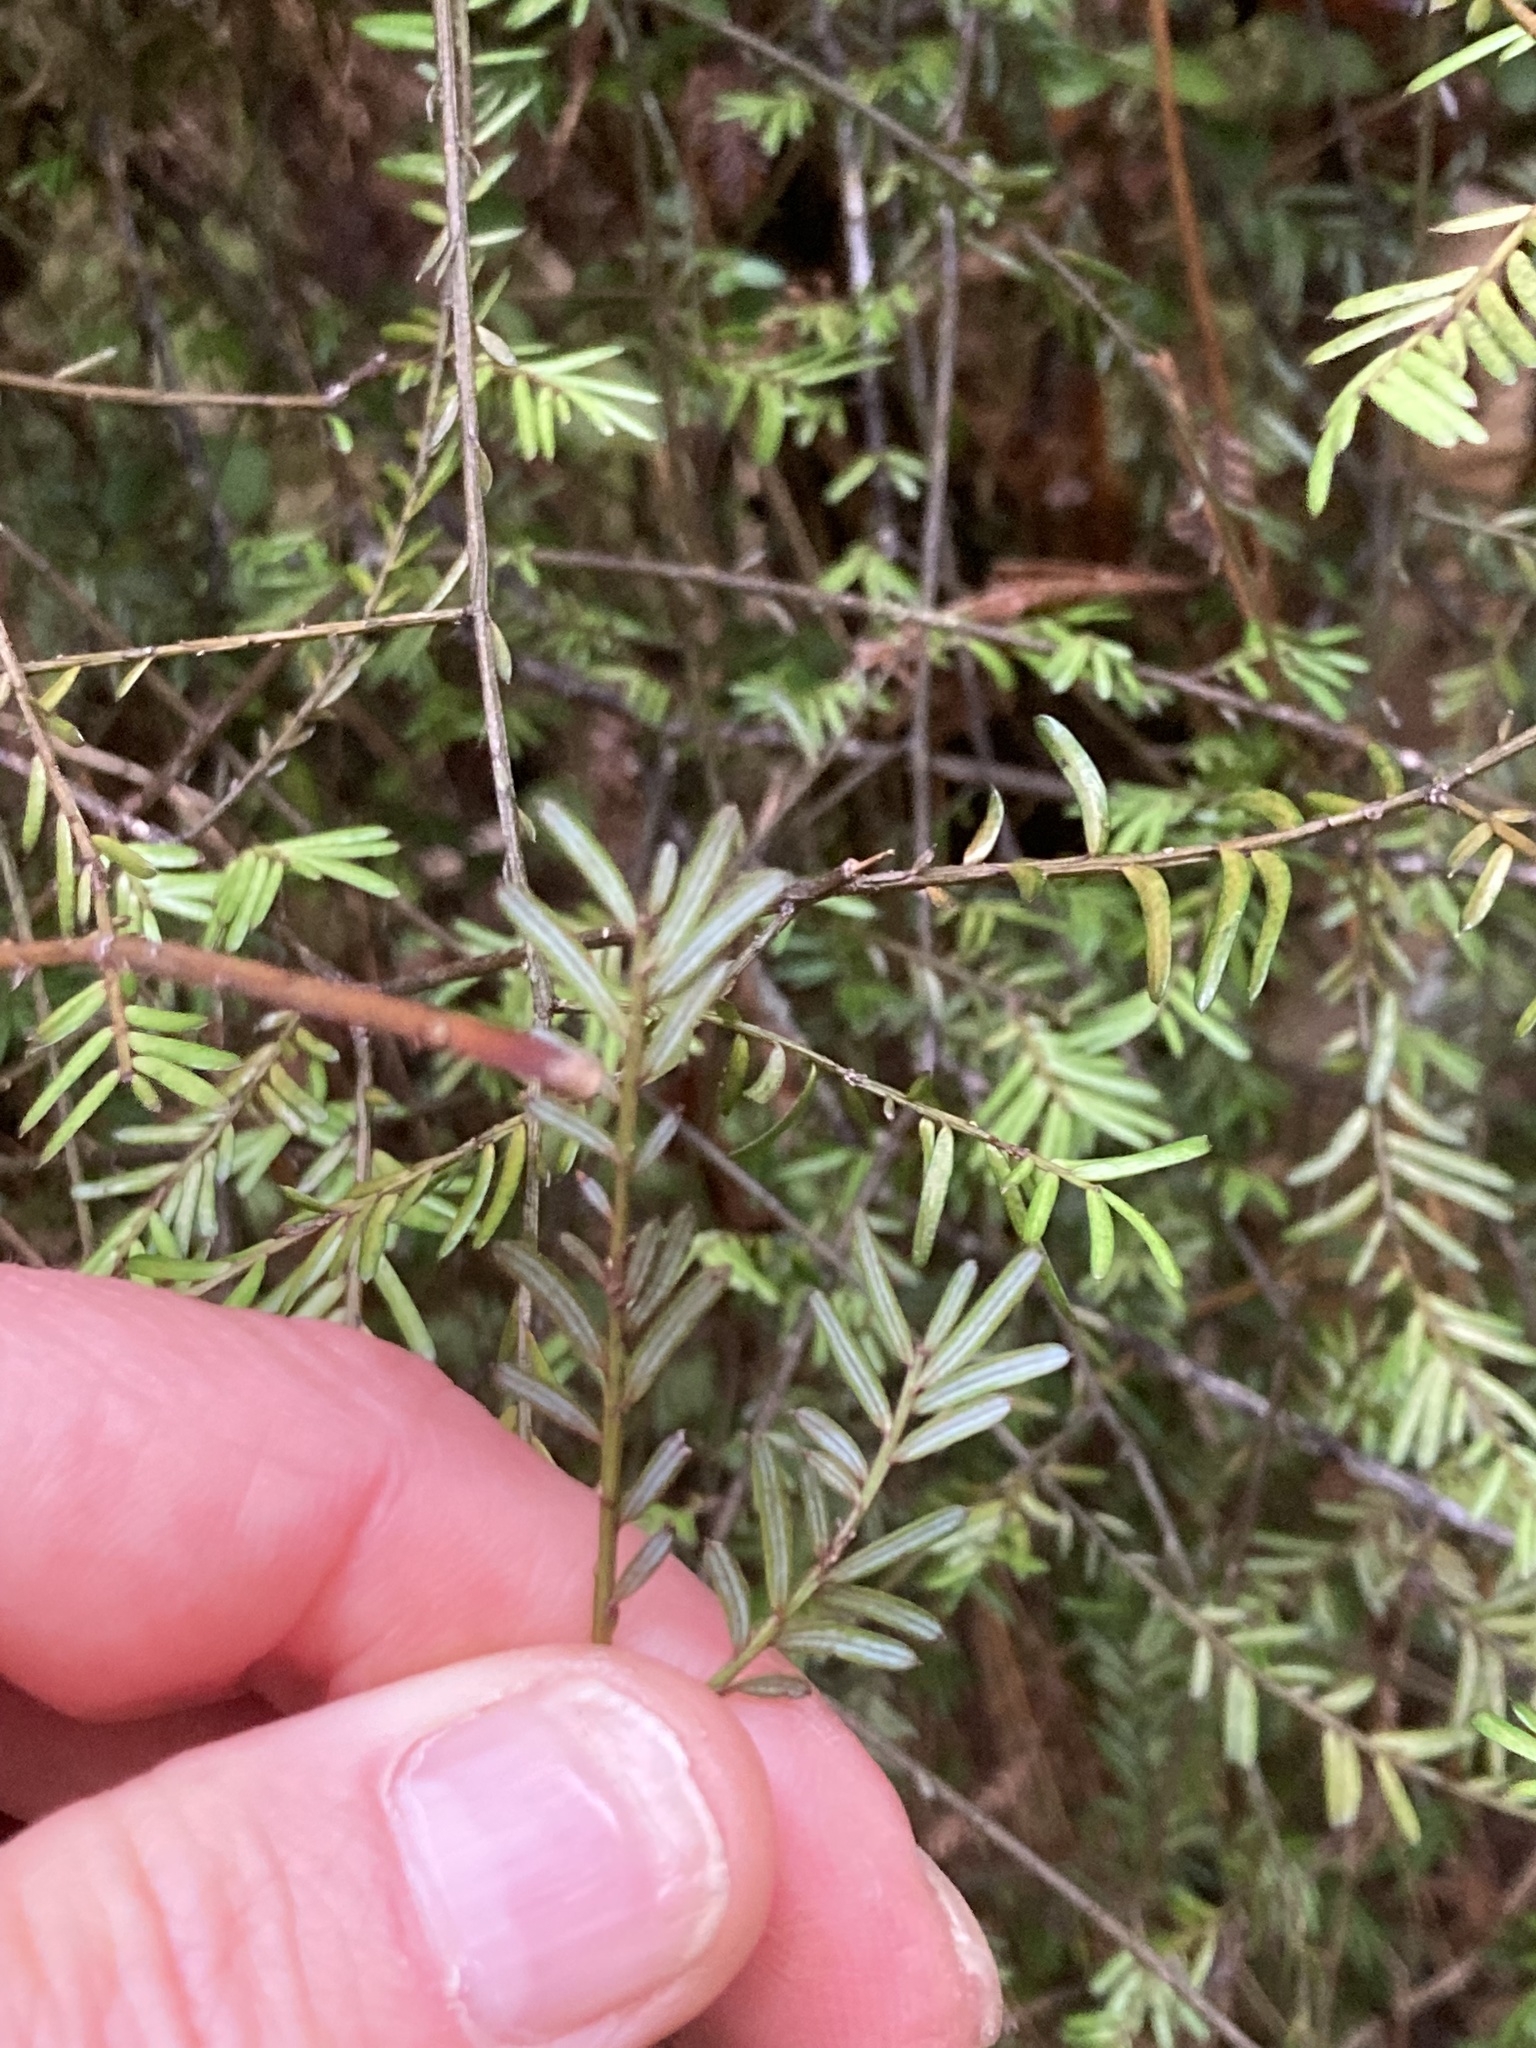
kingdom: Plantae
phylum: Tracheophyta
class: Pinopsida
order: Pinales
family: Podocarpaceae
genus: Prumnopitys
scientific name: Prumnopitys taxifolia
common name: Matai
